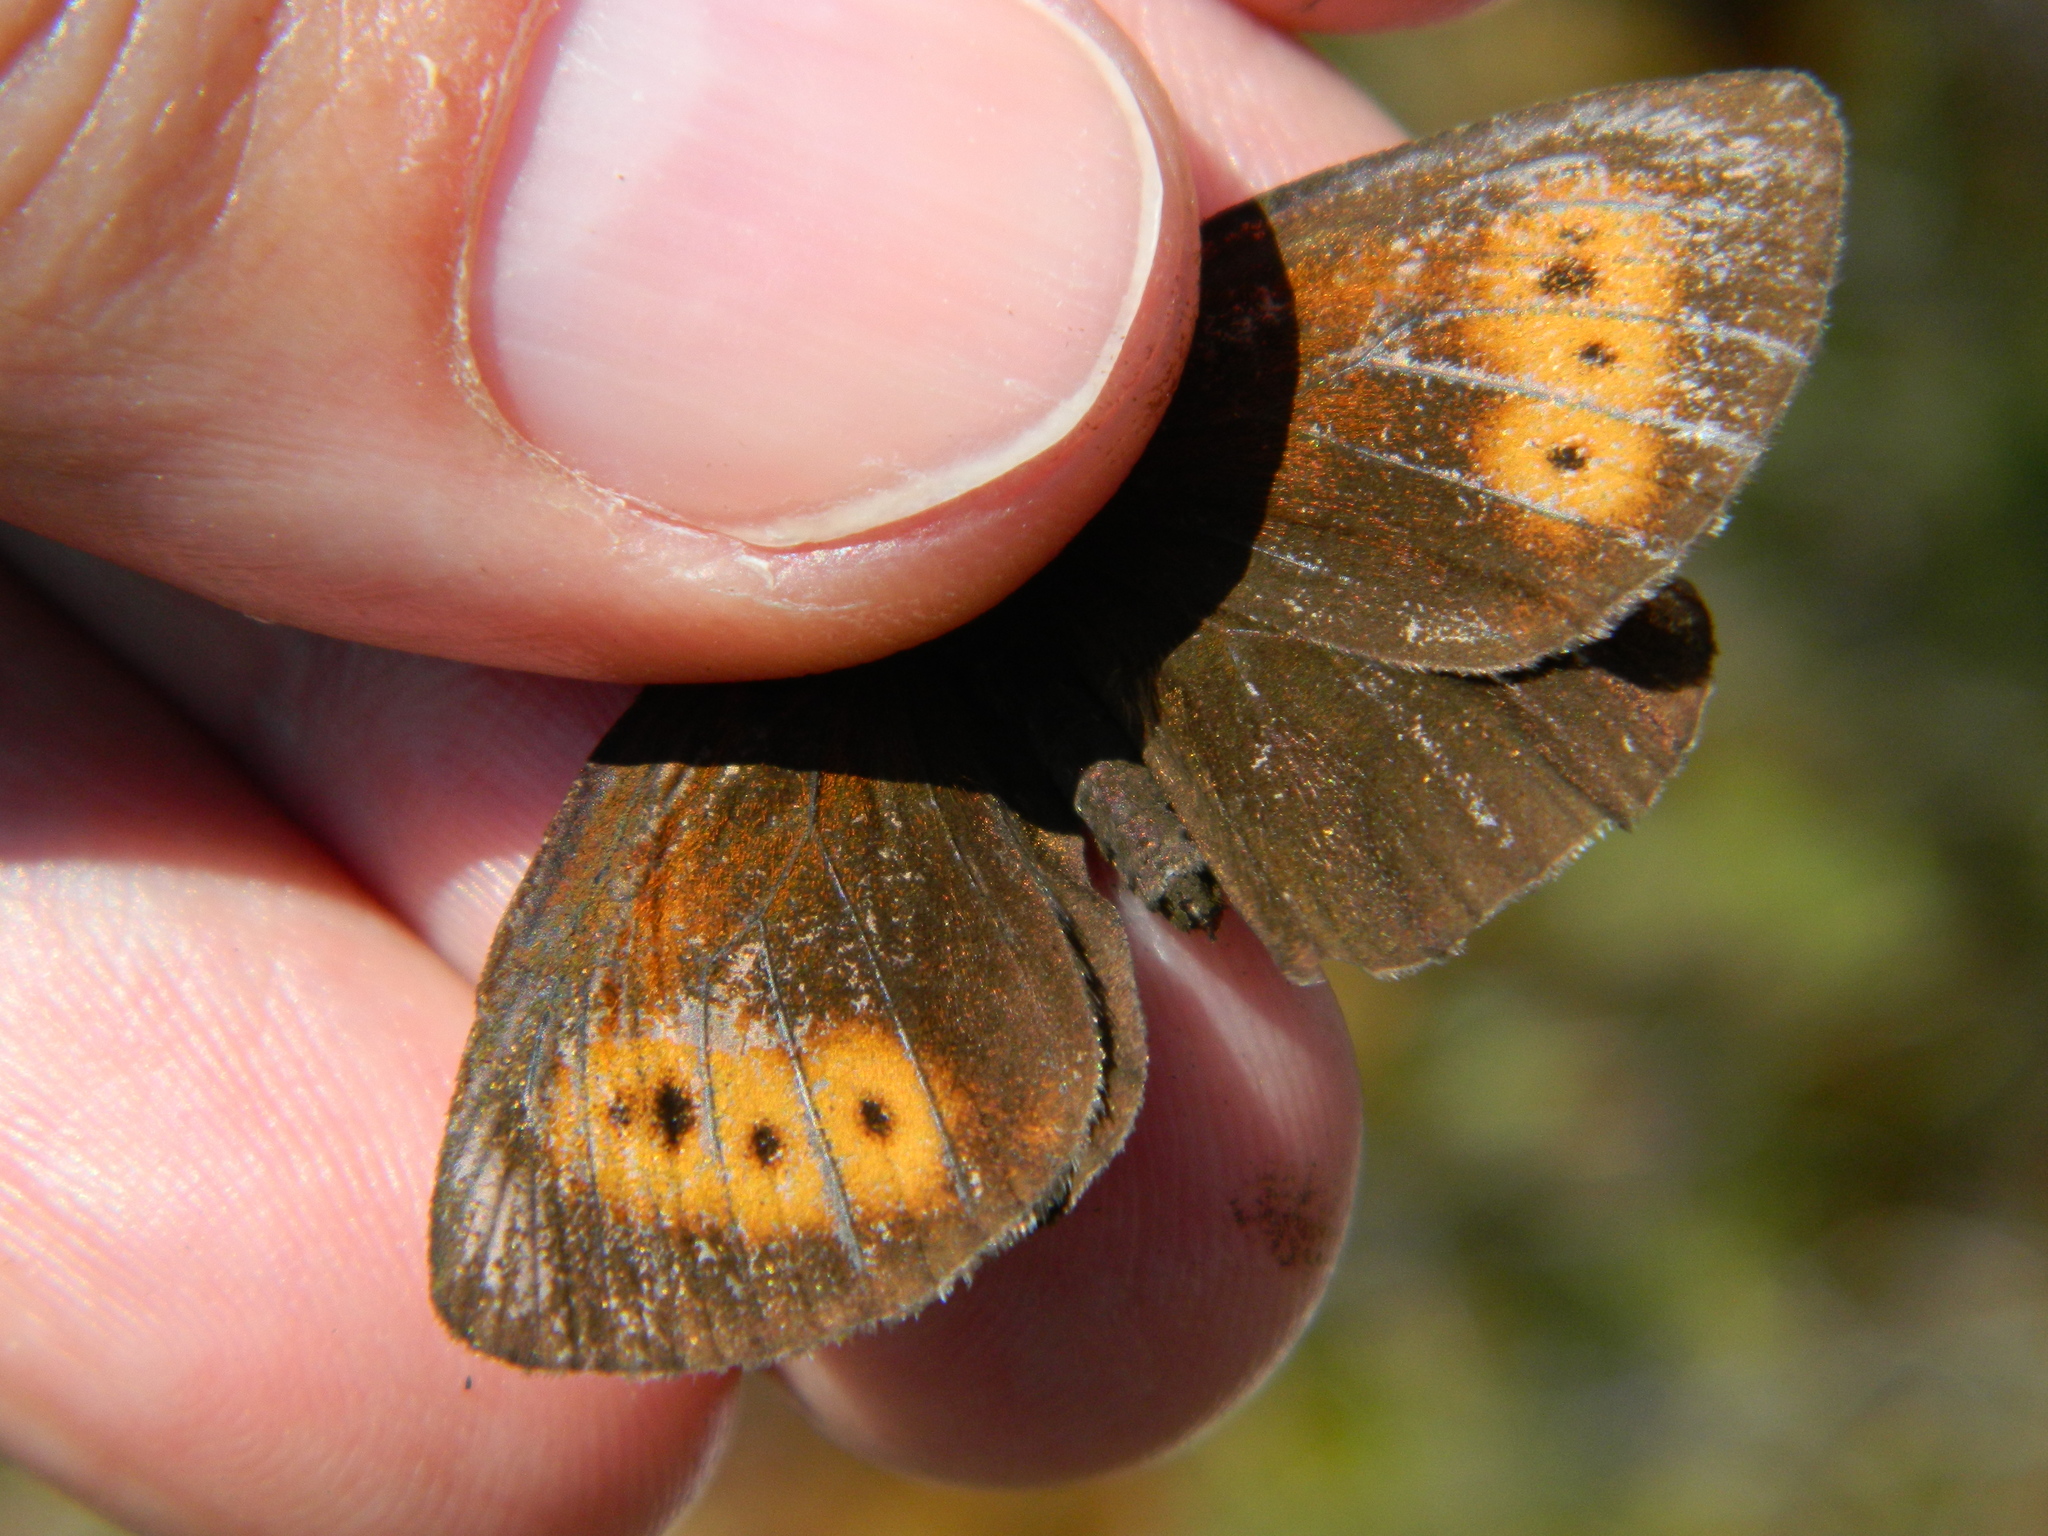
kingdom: Animalia
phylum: Arthropoda
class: Insecta
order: Lepidoptera
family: Nymphalidae
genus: Erebia
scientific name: Erebia disa
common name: Arctic ringlet
